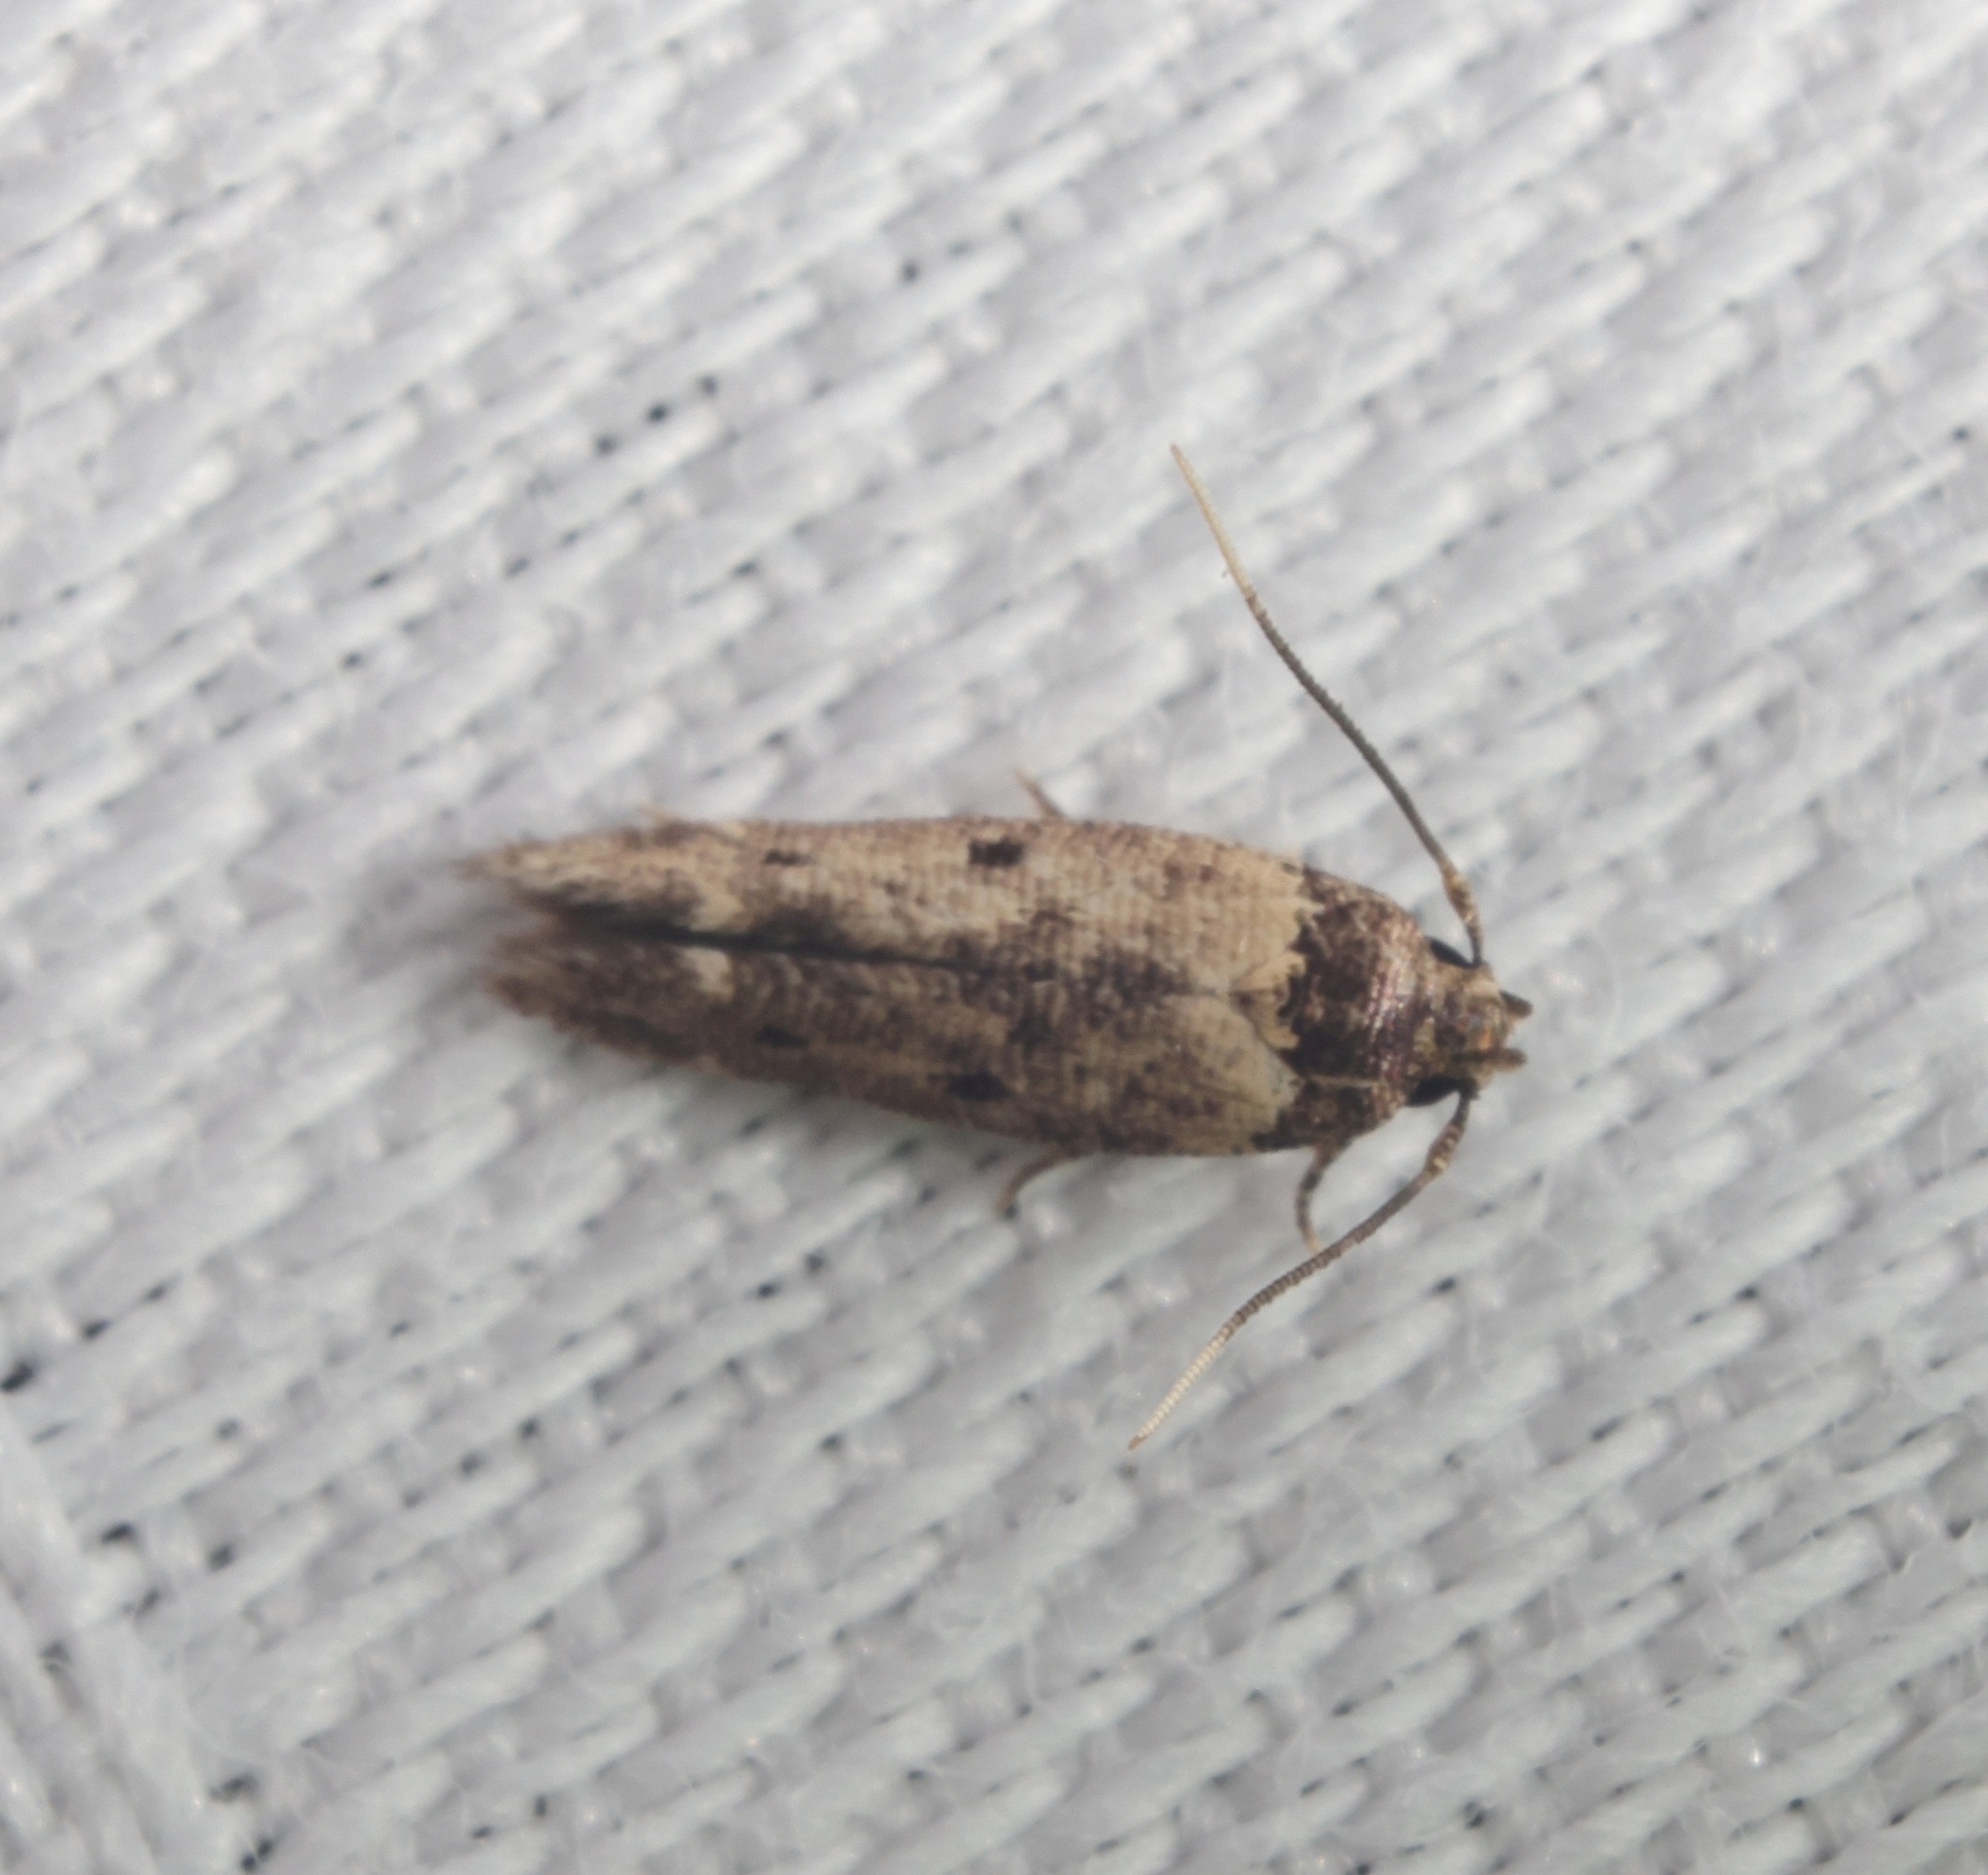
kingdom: Animalia
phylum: Arthropoda
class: Insecta
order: Lepidoptera
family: Cosmopterigidae
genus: Gisilia
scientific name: Gisilia thoracista
